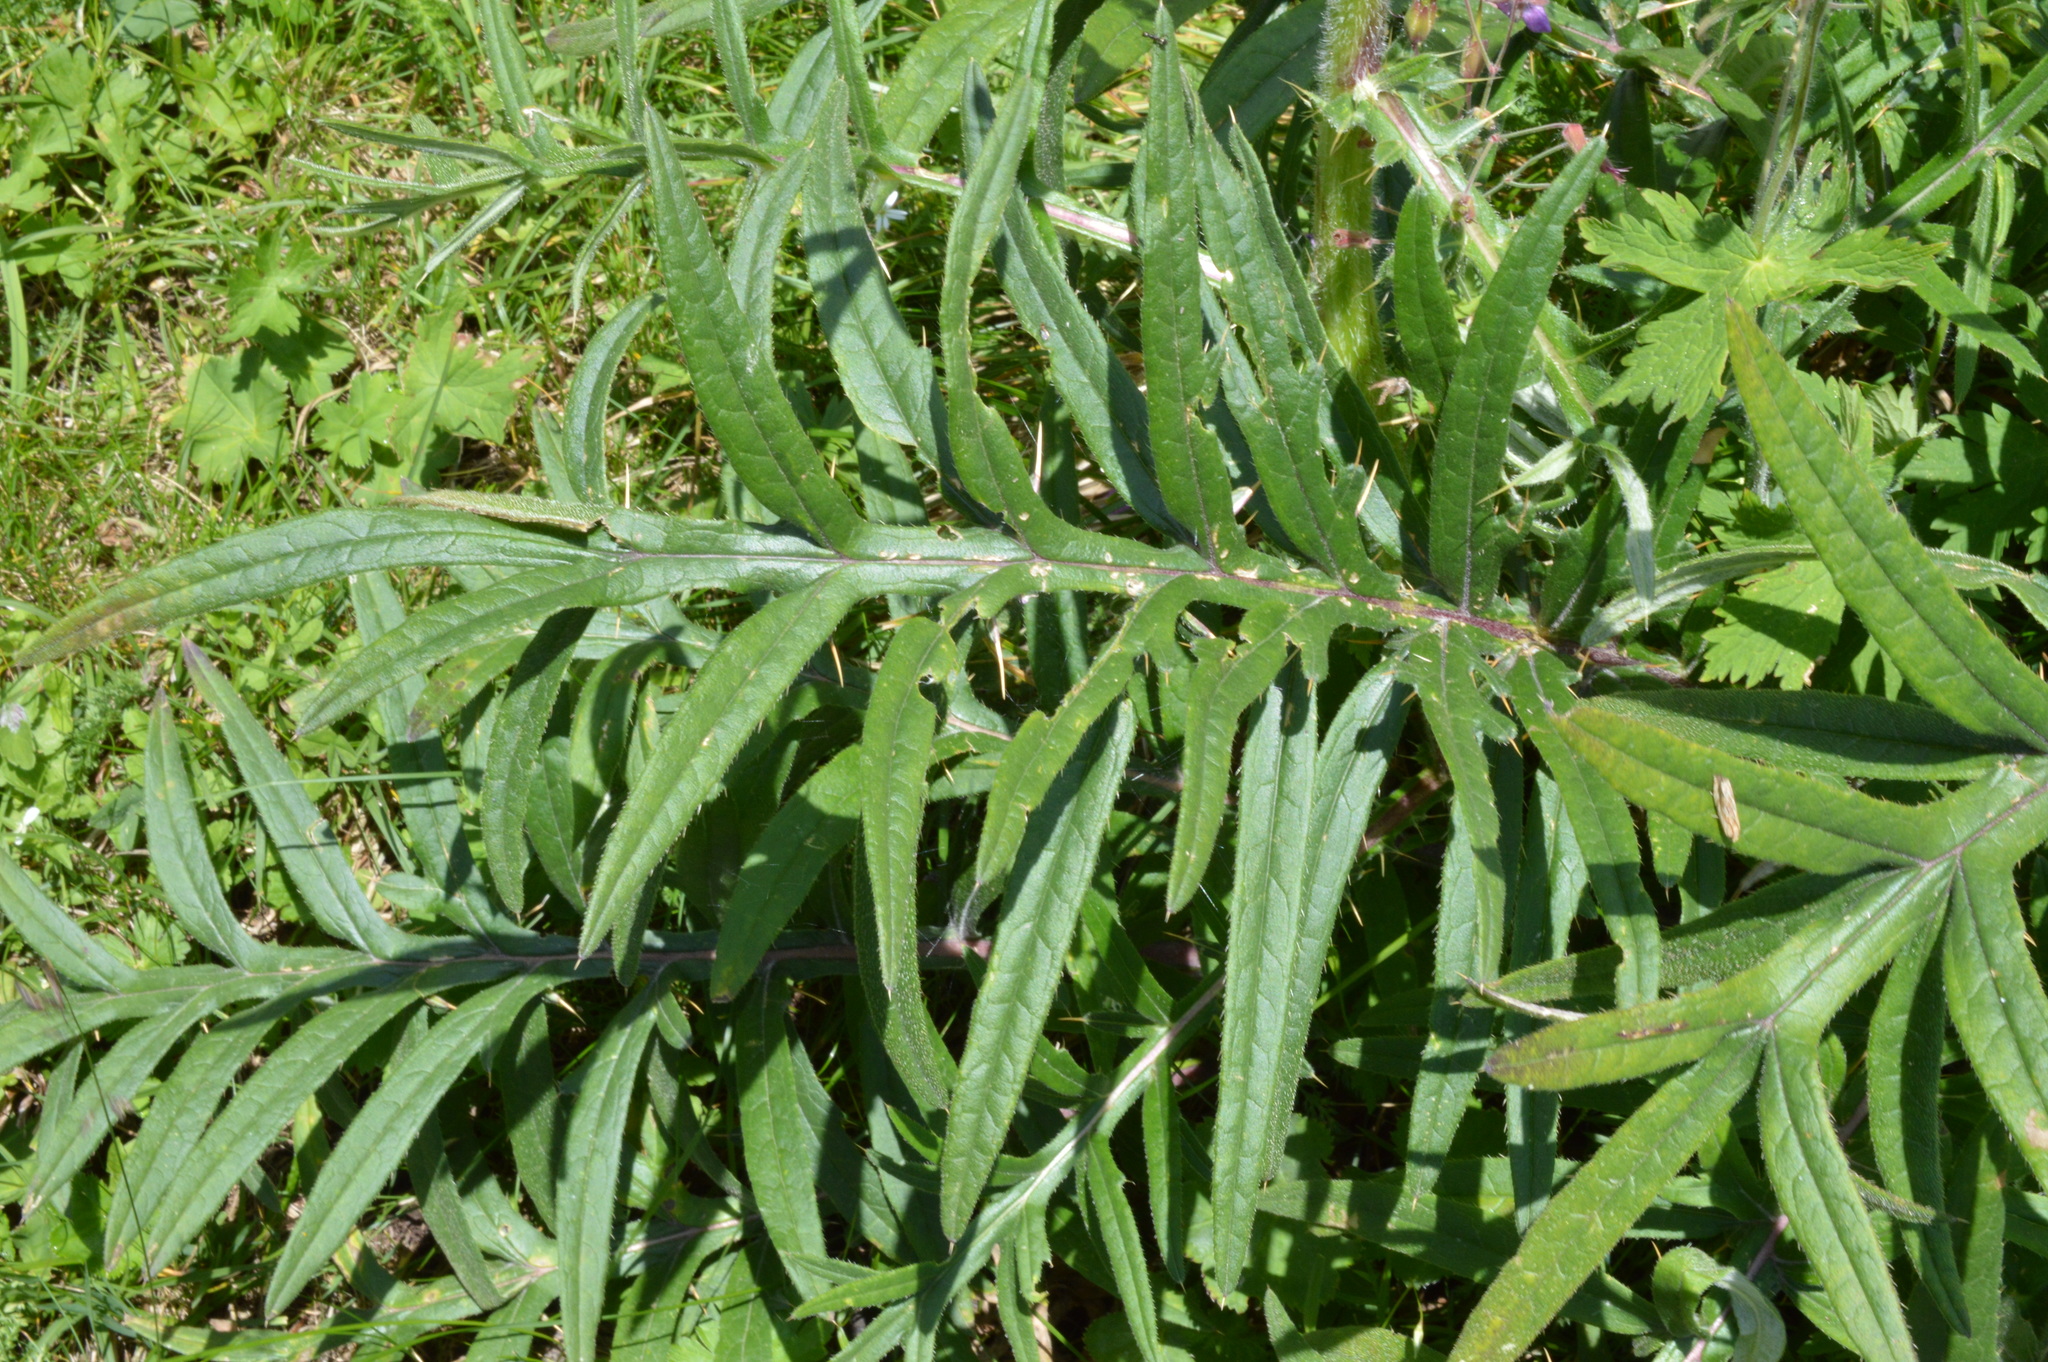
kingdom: Plantae
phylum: Tracheophyta
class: Magnoliopsida
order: Asterales
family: Asteraceae
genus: Lophiolepis
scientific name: Lophiolepis eriophora
